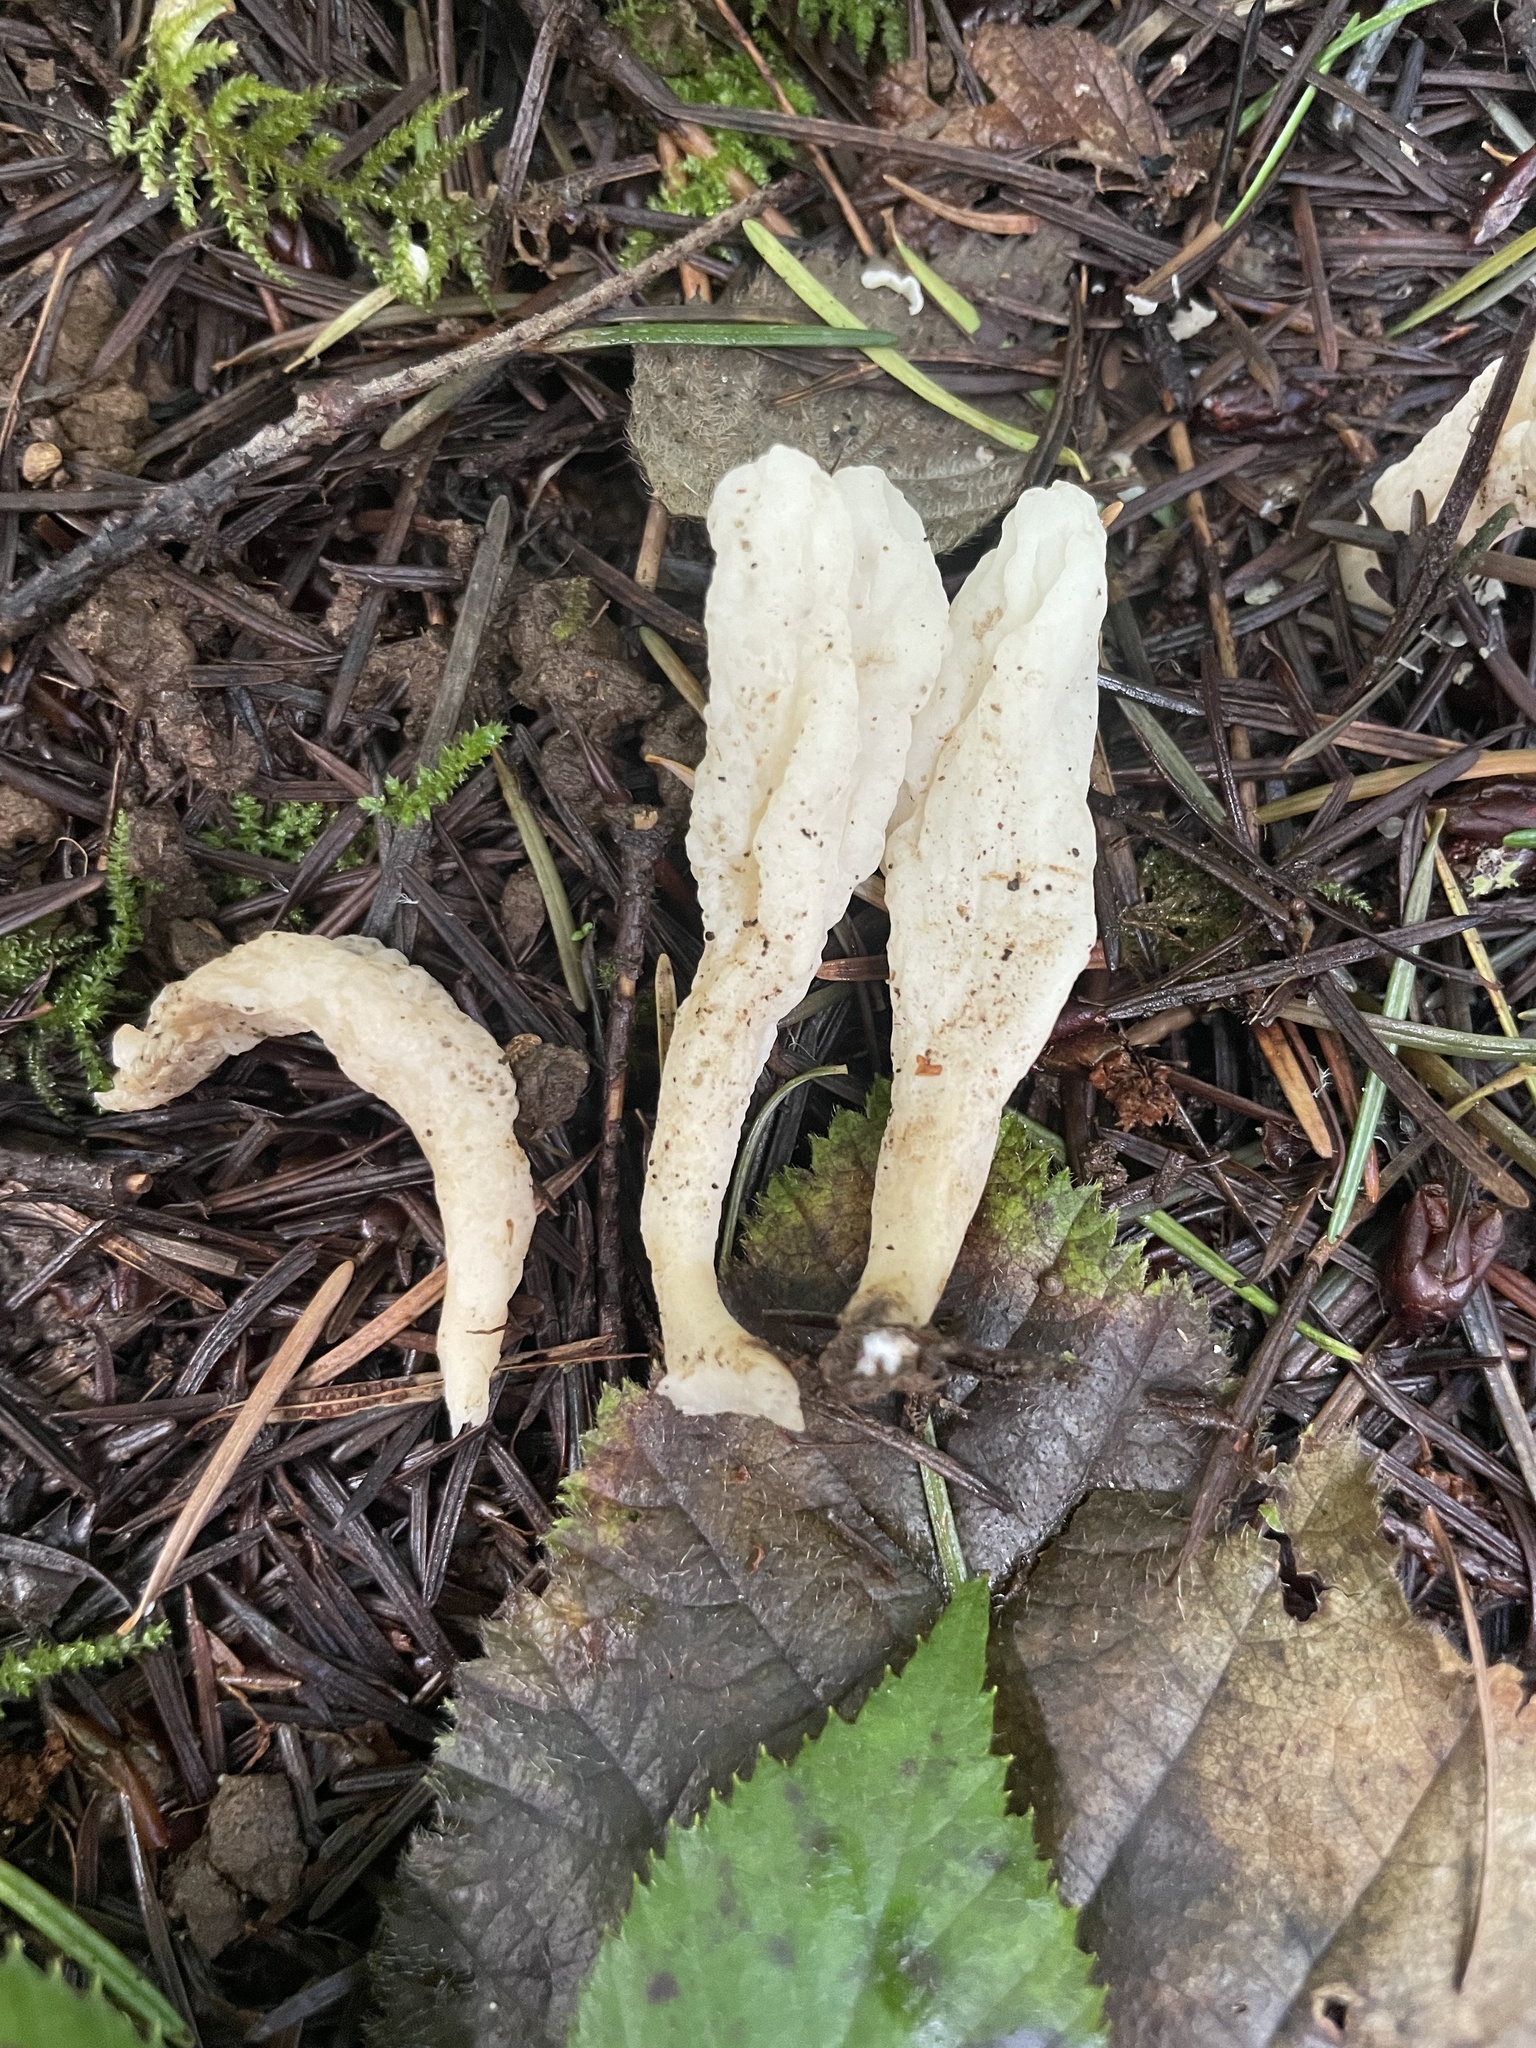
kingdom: Fungi
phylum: Basidiomycota
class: Agaricomycetes
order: Cantharellales
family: Hydnaceae
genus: Clavulina
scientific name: Clavulina rugosa
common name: Wrinkled club
